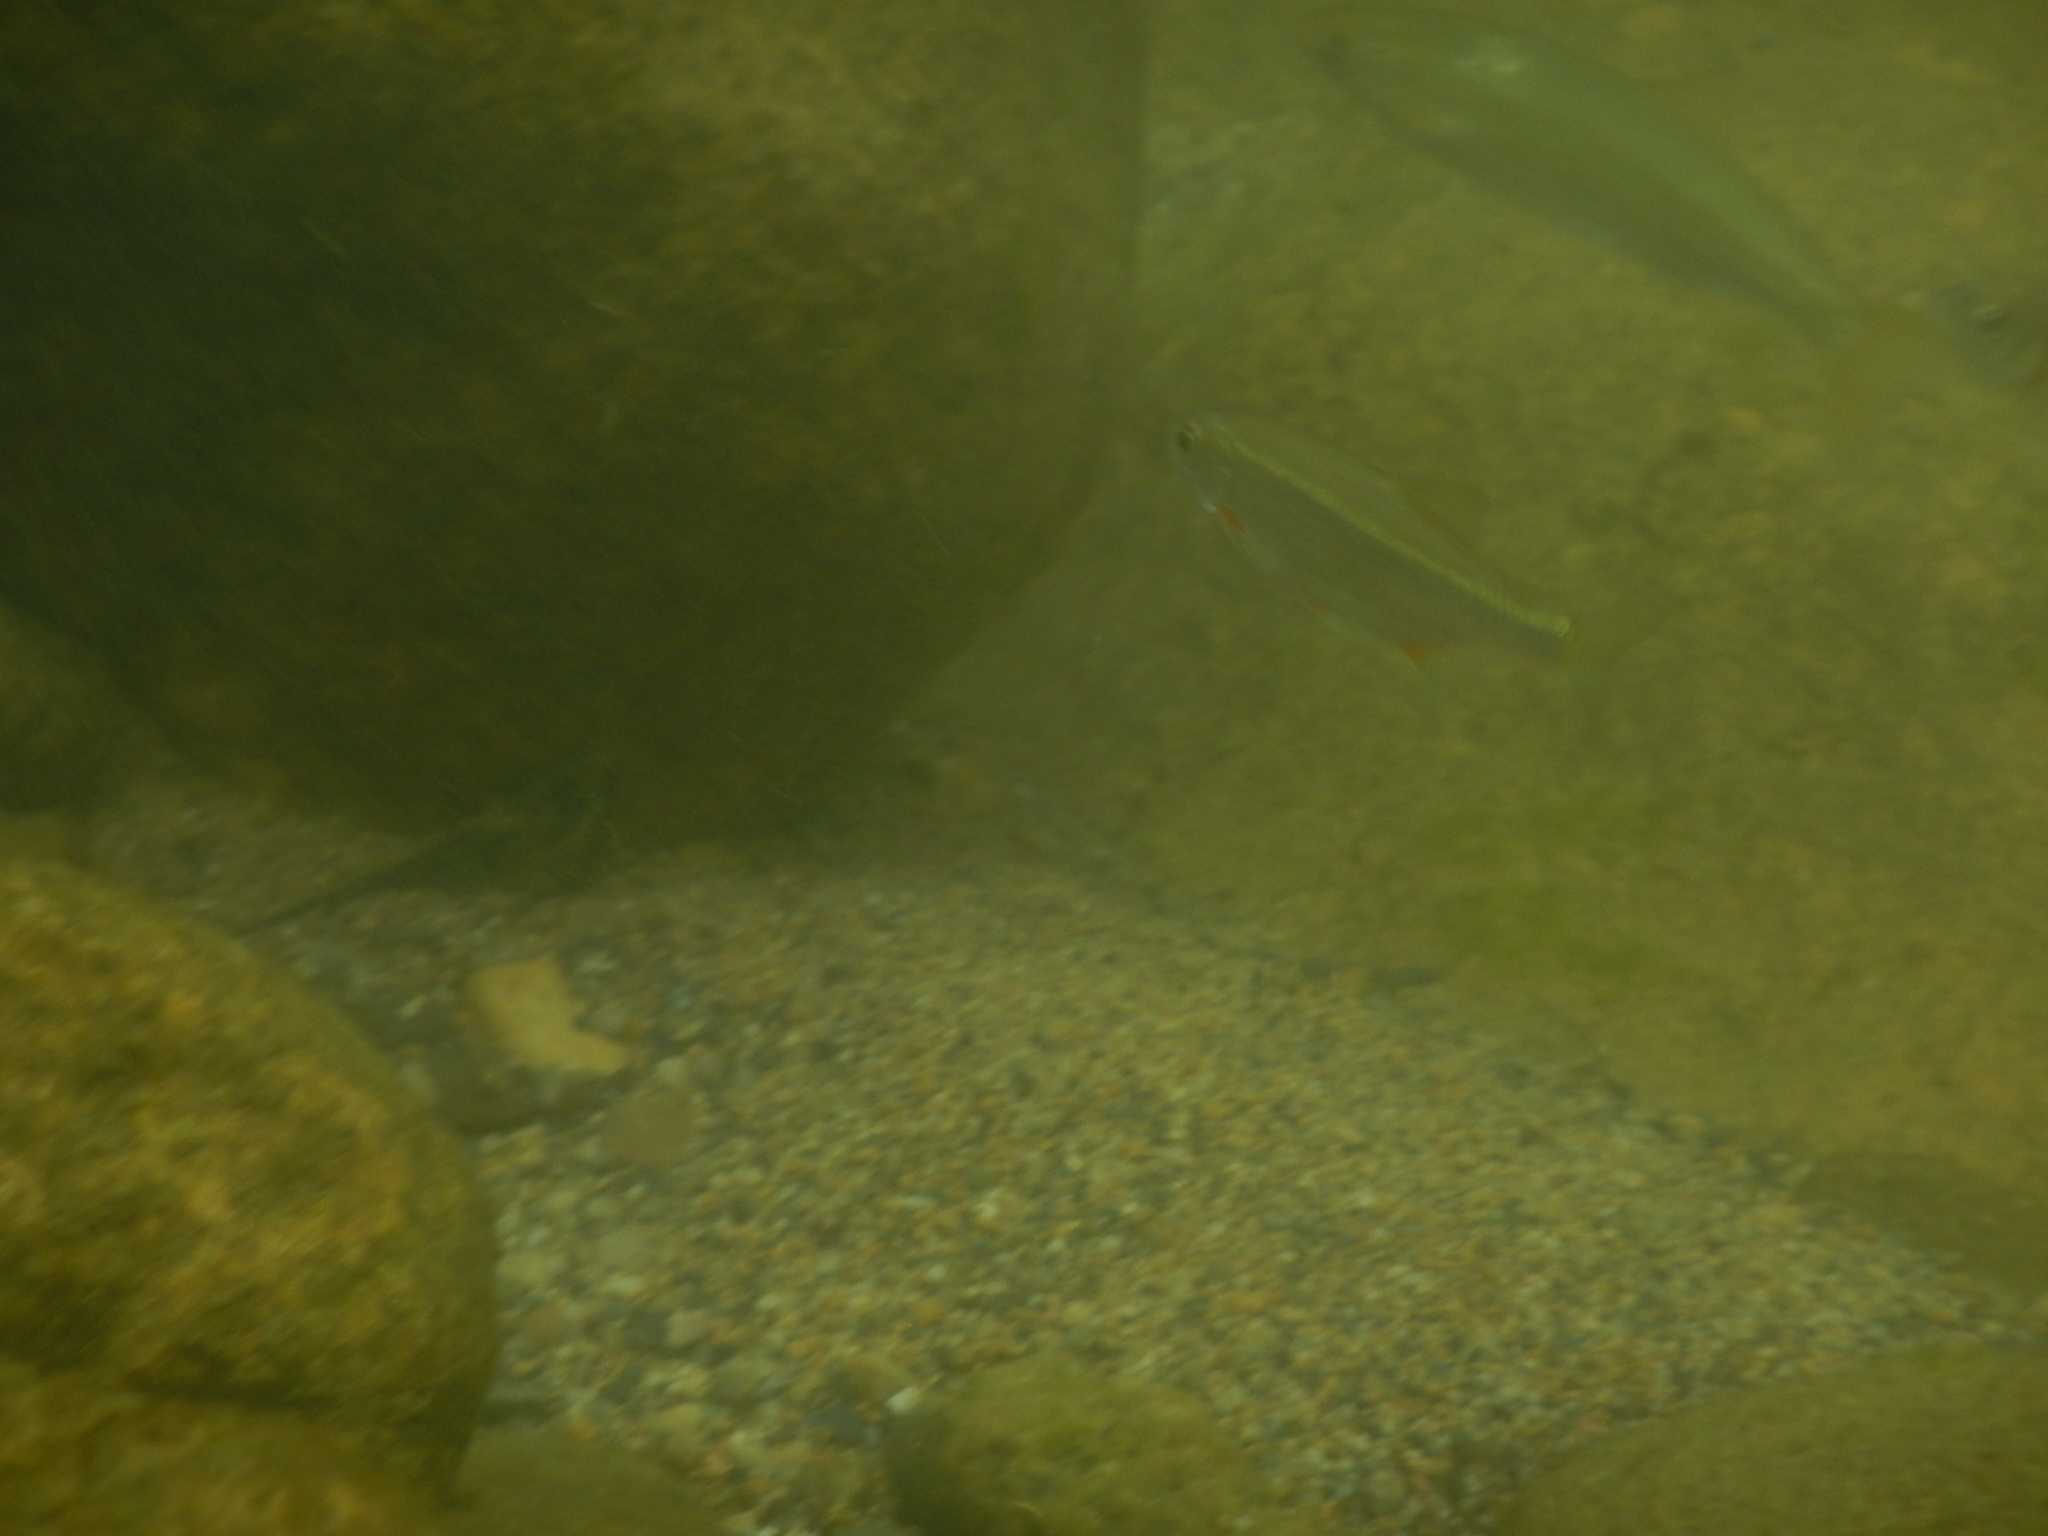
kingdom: Animalia
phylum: Chordata
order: Cypriniformes
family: Cyprinidae
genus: Alburnoides
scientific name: Alburnoides bipunctatus
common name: Spirlin
